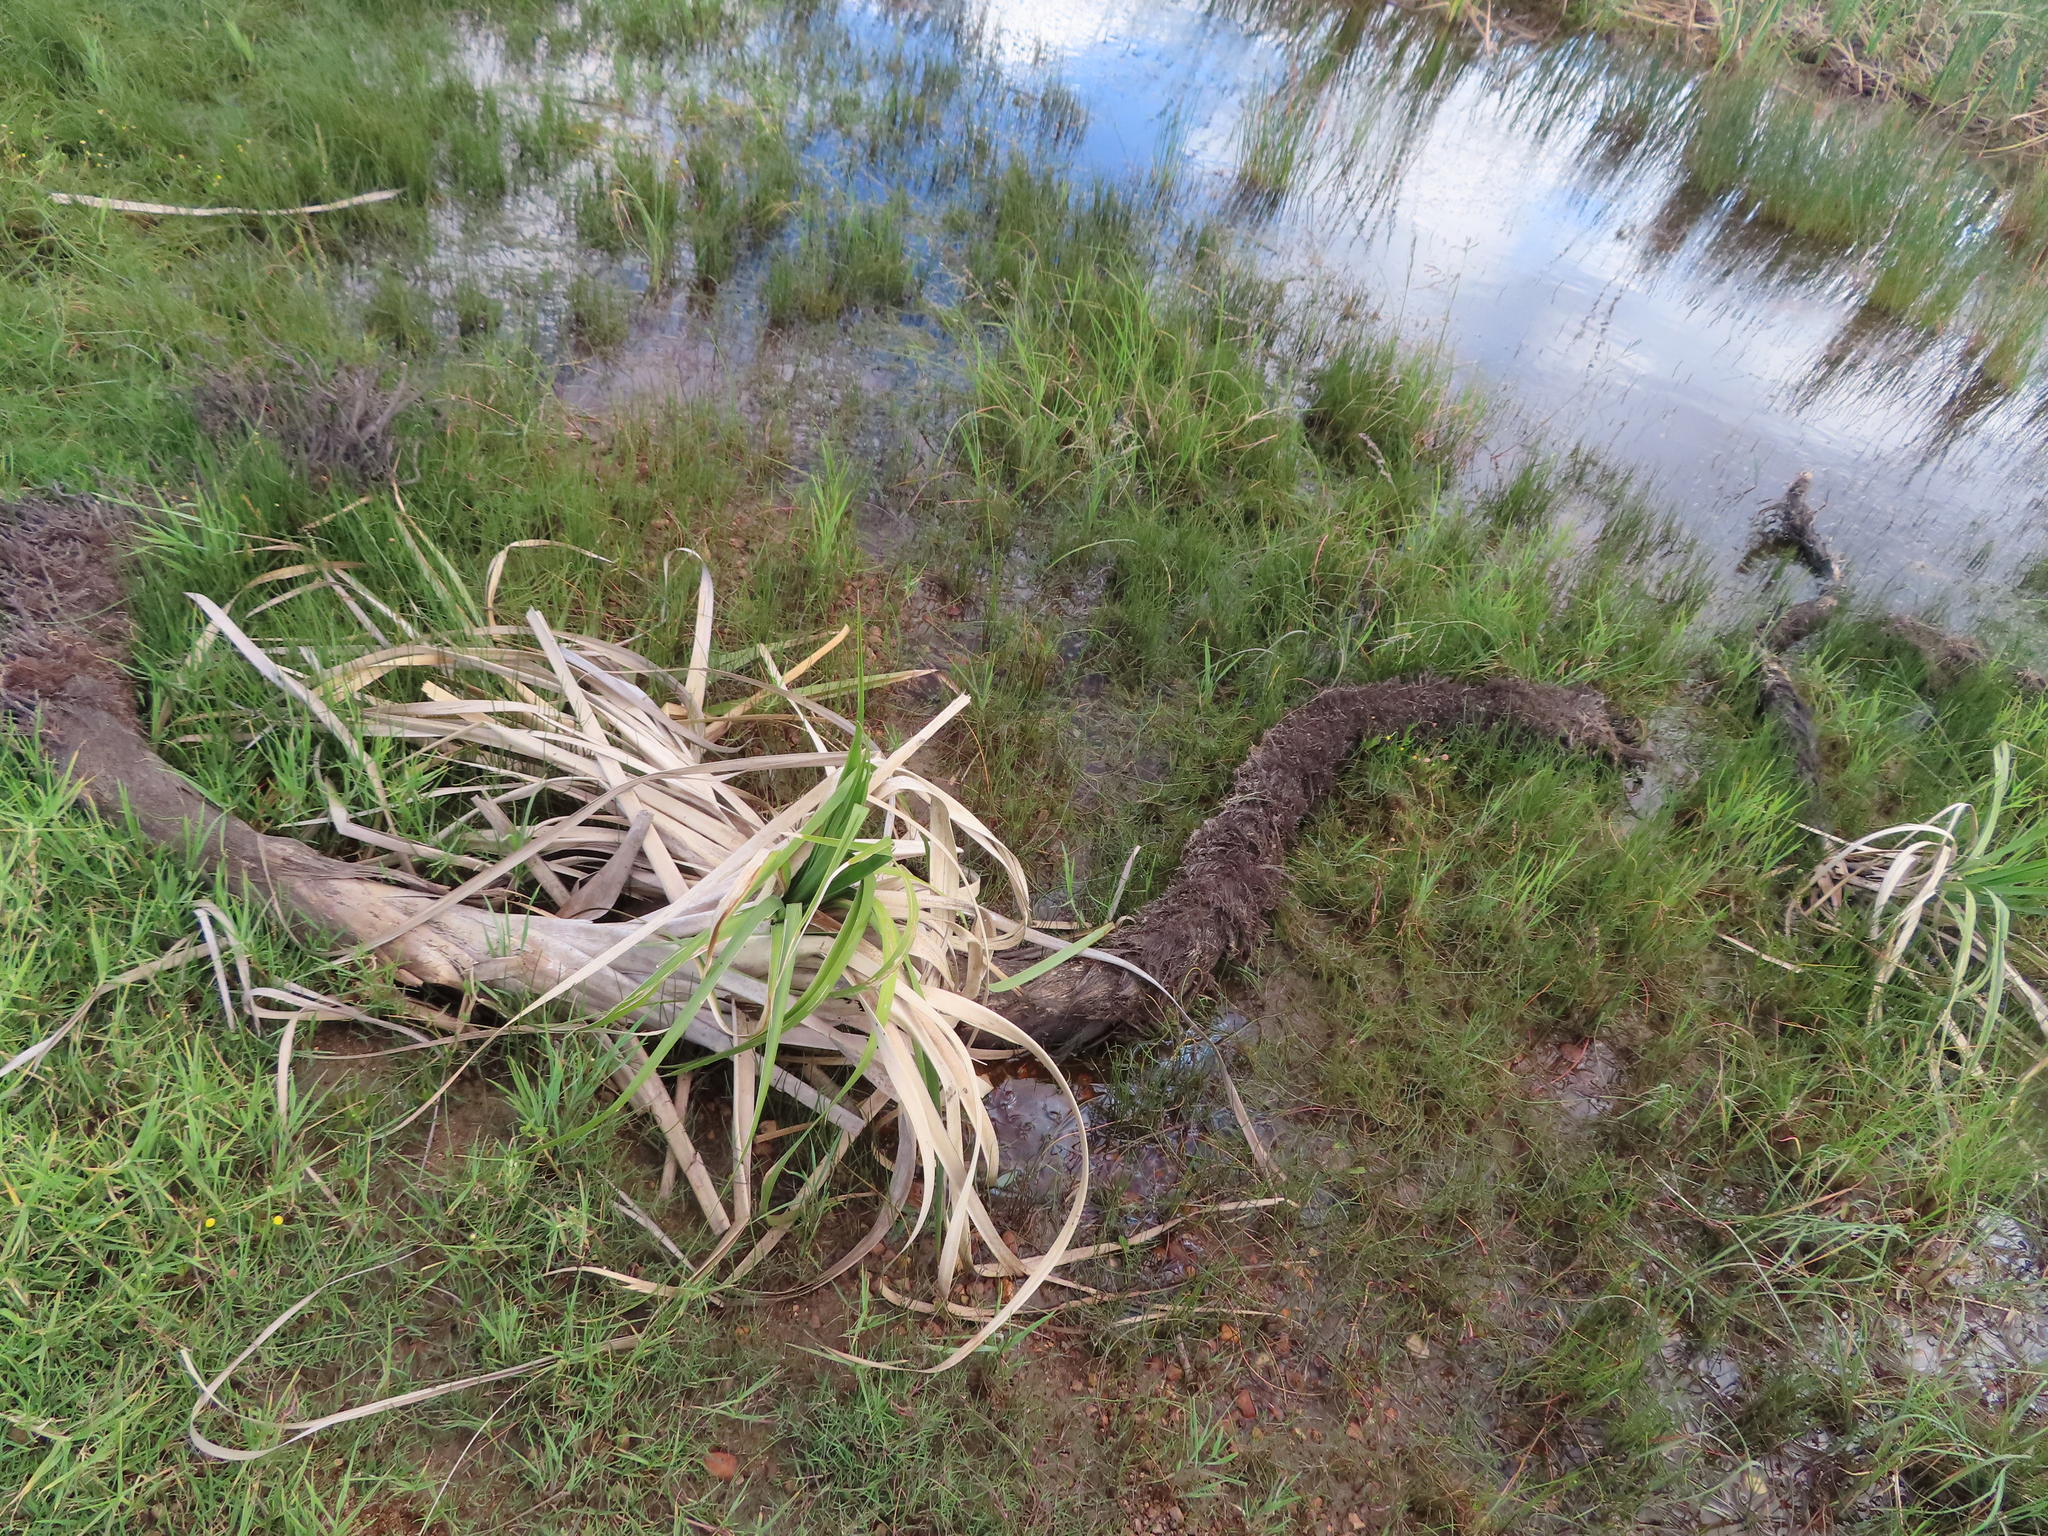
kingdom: Plantae
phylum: Tracheophyta
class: Liliopsida
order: Poales
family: Thurniaceae
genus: Prionium
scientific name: Prionium serratum
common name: Palmiet
